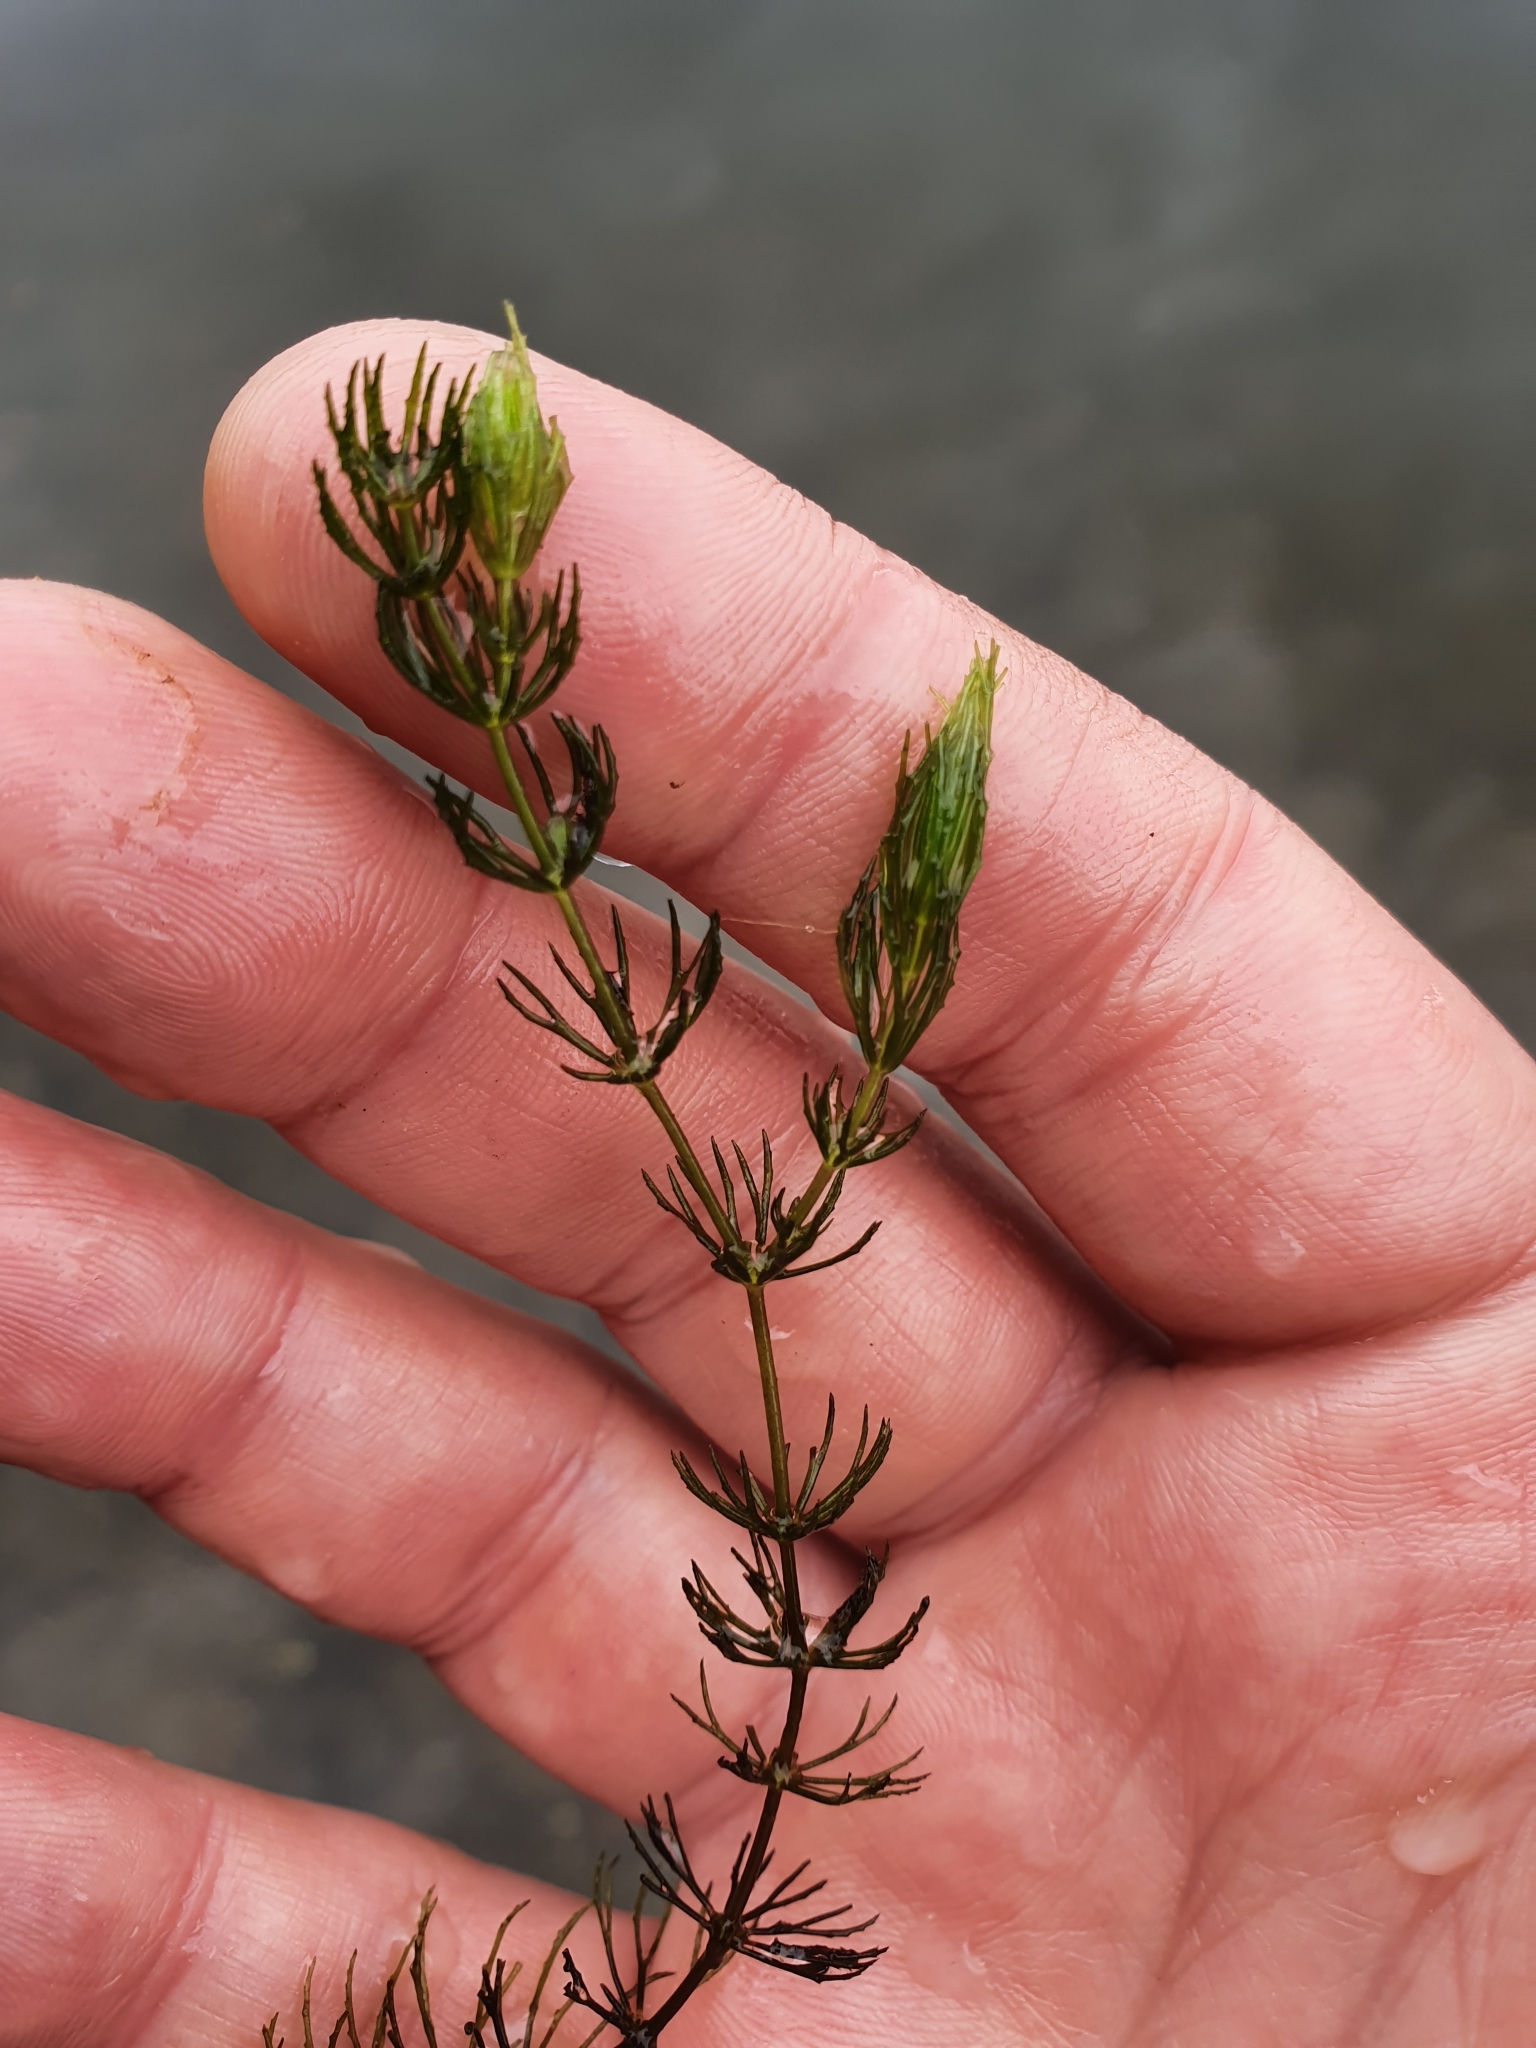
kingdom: Plantae
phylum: Tracheophyta
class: Magnoliopsida
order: Ceratophyllales
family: Ceratophyllaceae
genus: Ceratophyllum
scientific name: Ceratophyllum demersum
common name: Rigid hornwort
